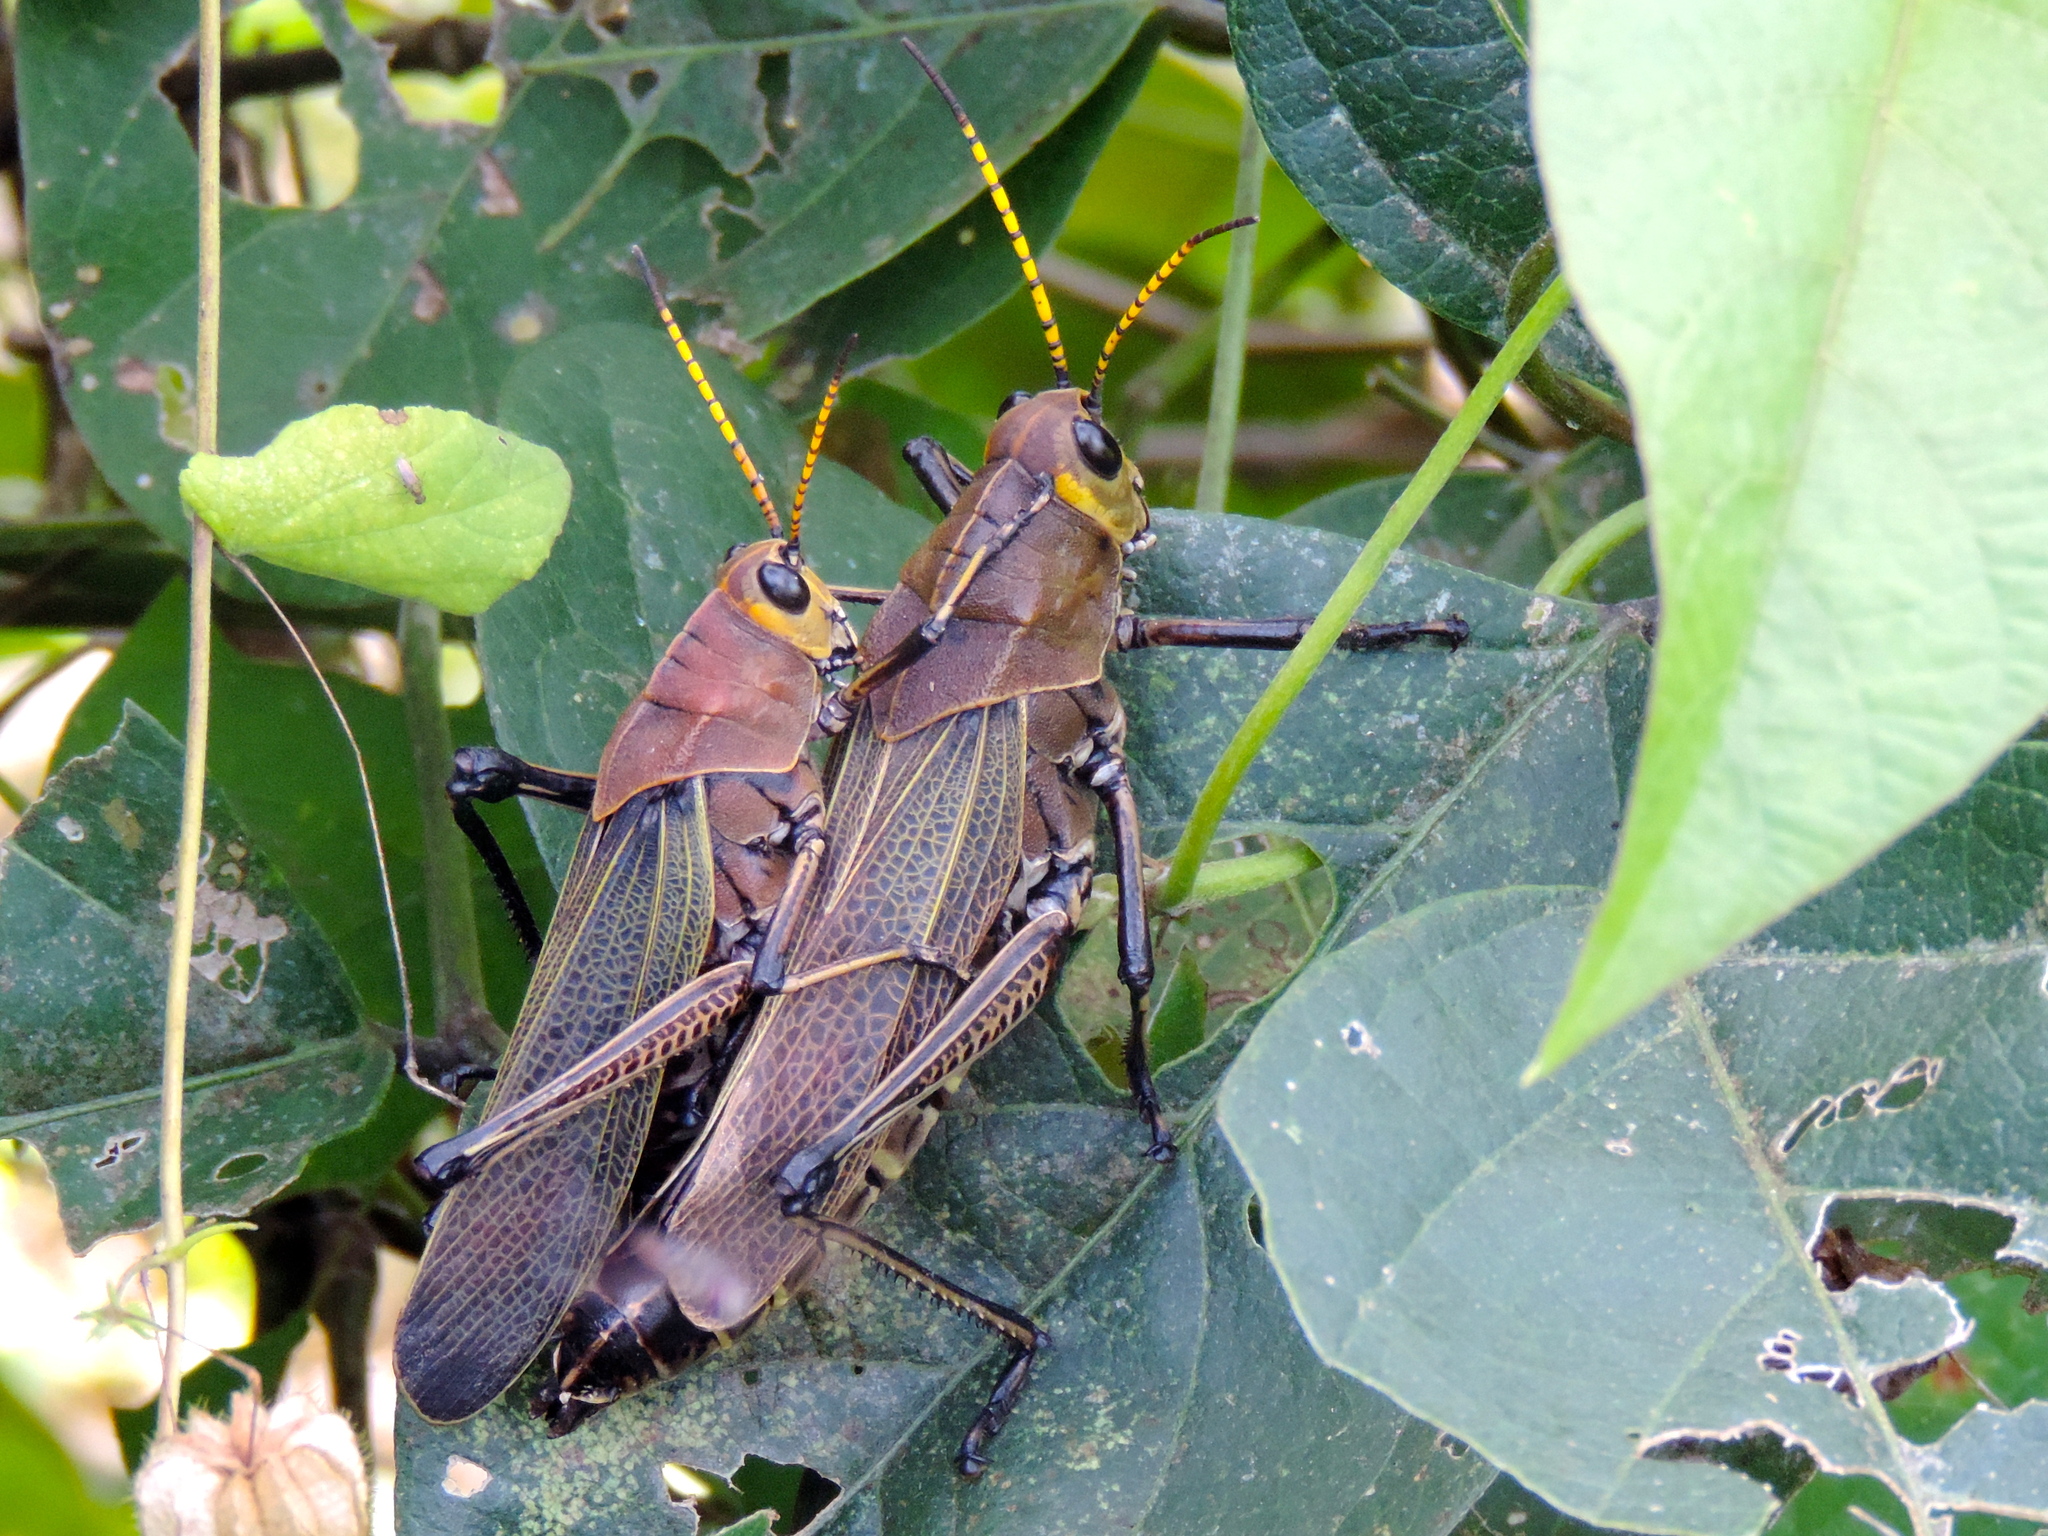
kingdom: Animalia
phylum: Arthropoda
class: Insecta
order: Orthoptera
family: Romaleidae
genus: Romalea
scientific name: Romalea
